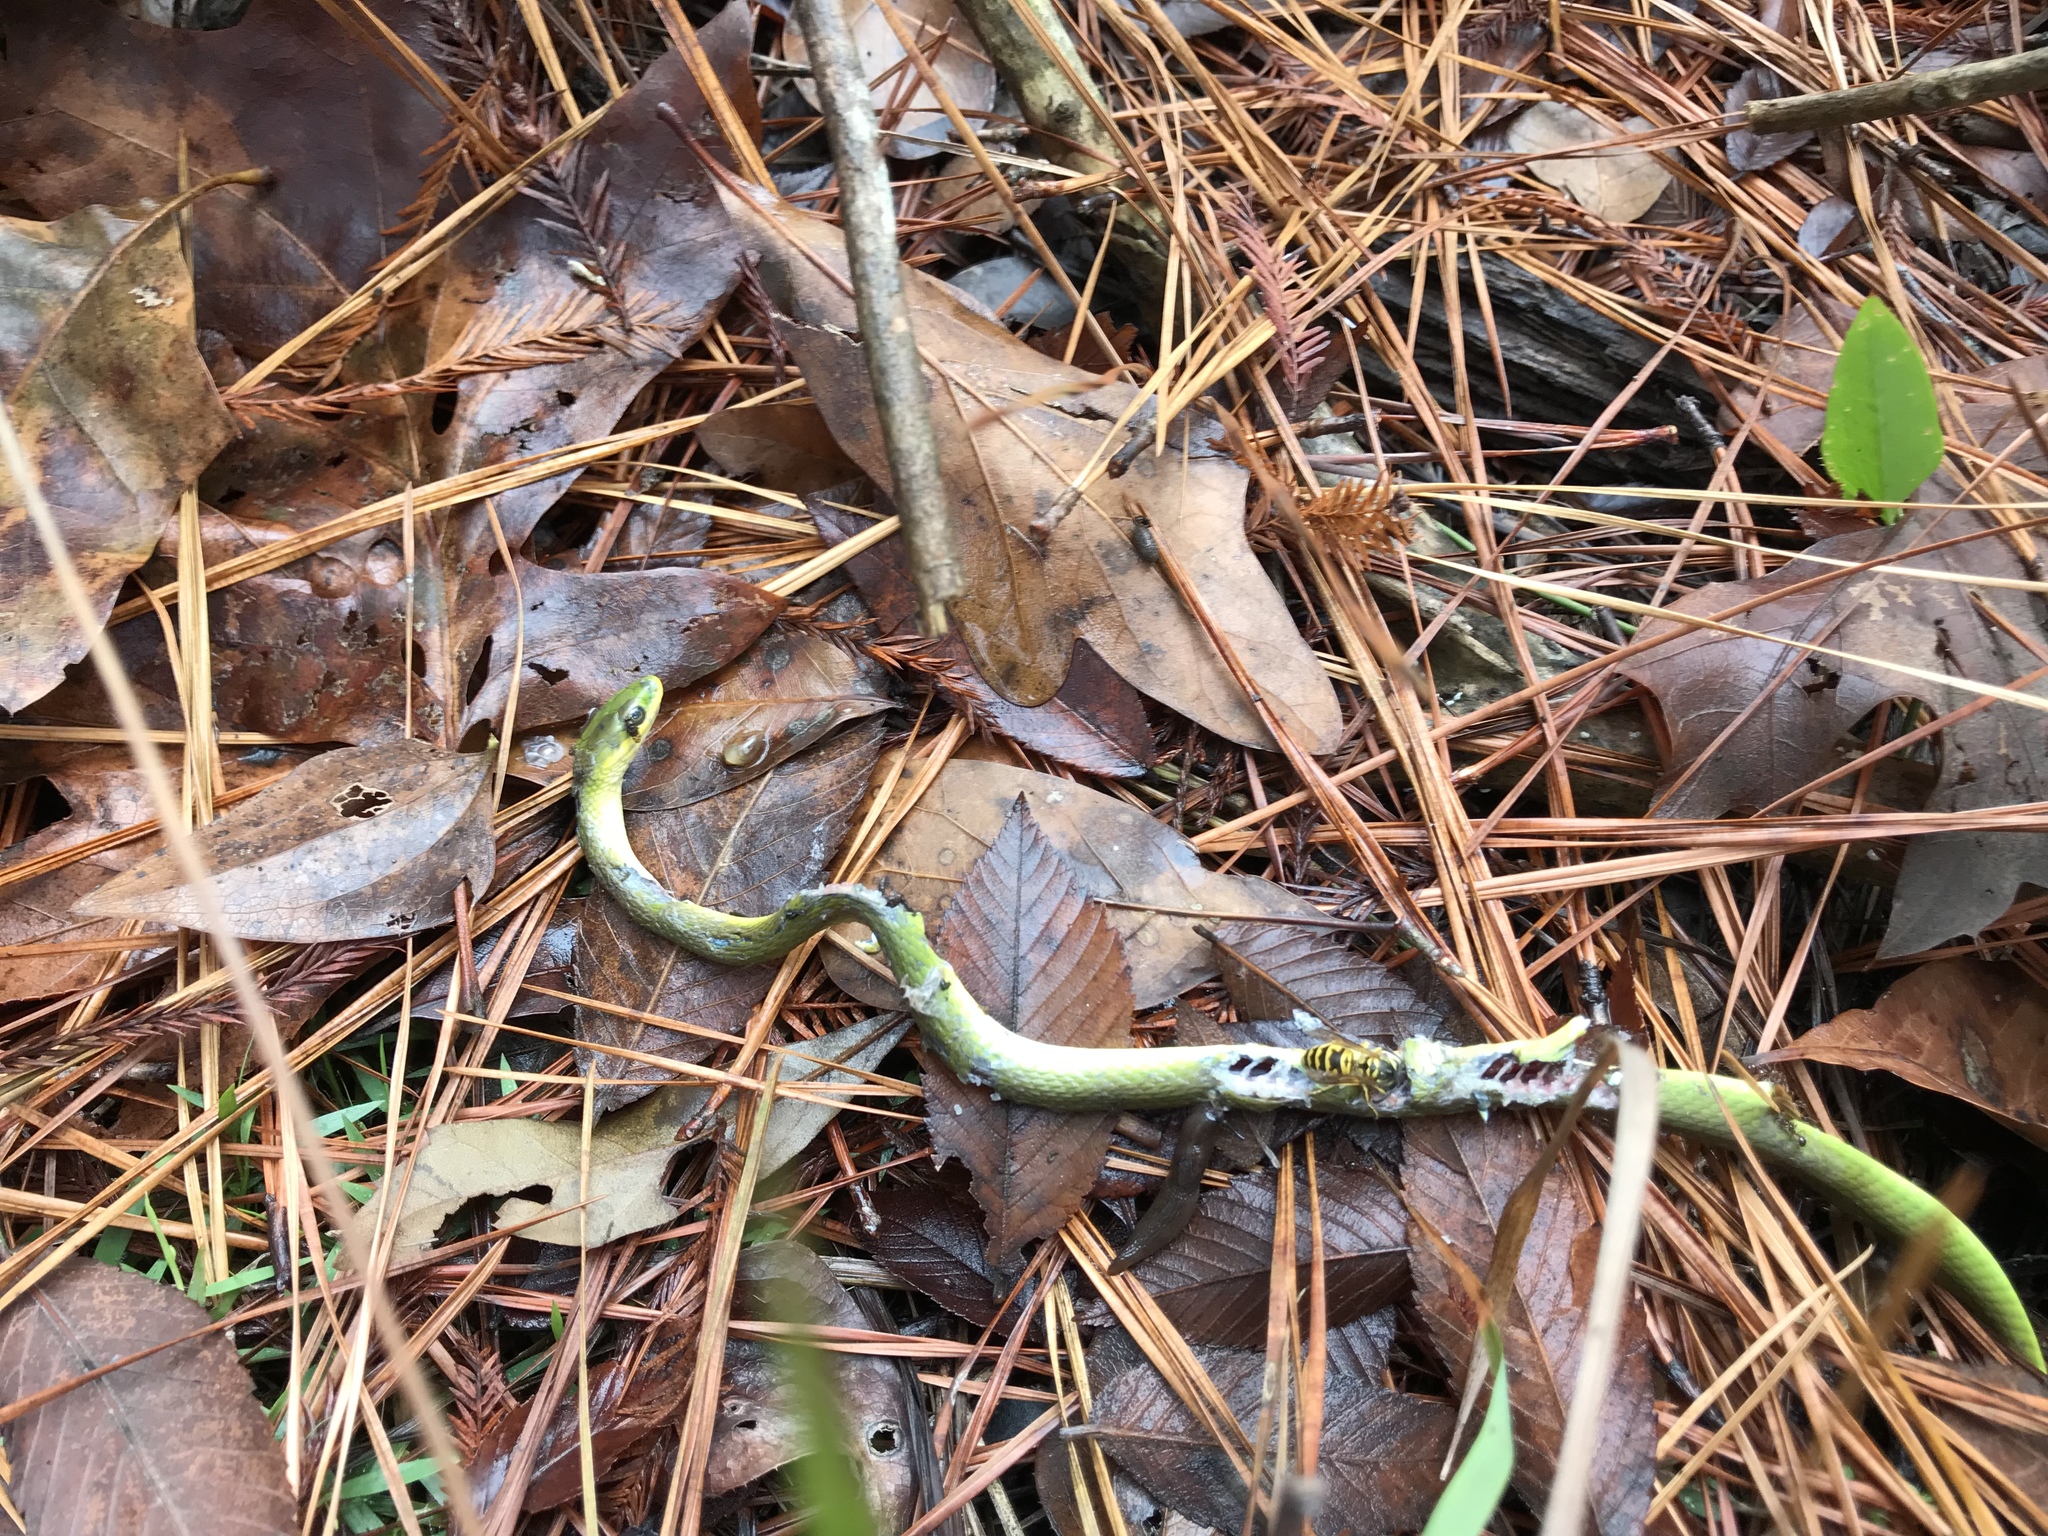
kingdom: Animalia
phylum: Chordata
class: Squamata
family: Colubridae
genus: Opheodrys
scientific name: Opheodrys aestivus
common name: Rough greensnake
